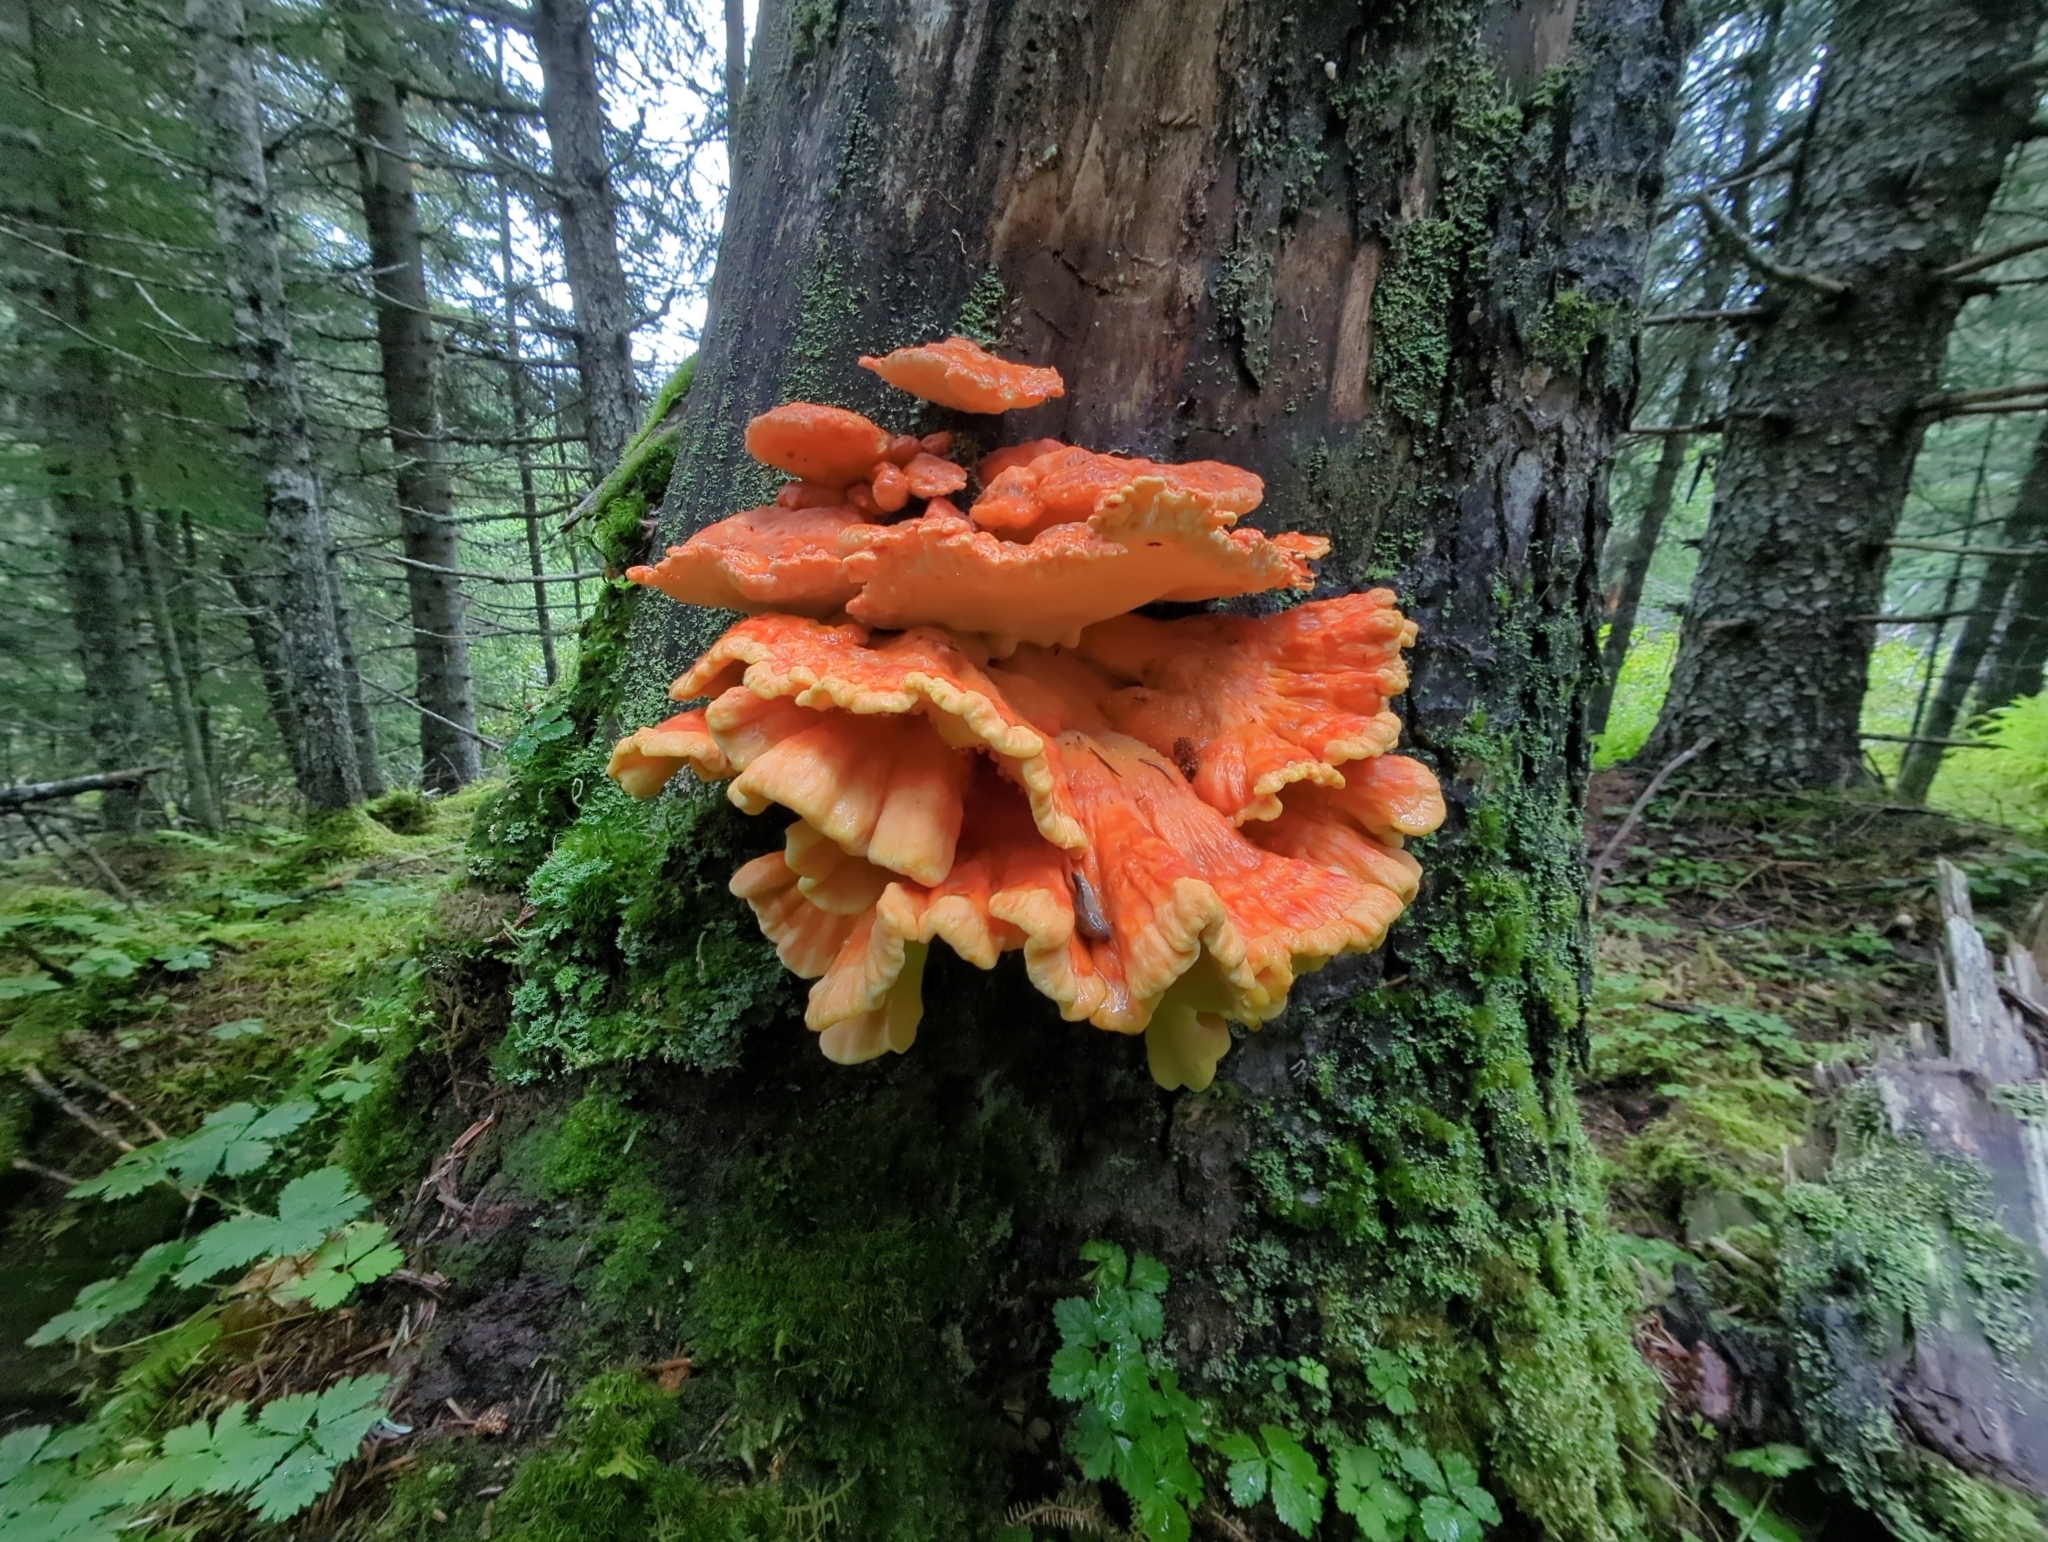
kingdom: Fungi
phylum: Basidiomycota
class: Agaricomycetes
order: Polyporales
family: Laetiporaceae
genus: Laetiporus
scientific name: Laetiporus conifericola
